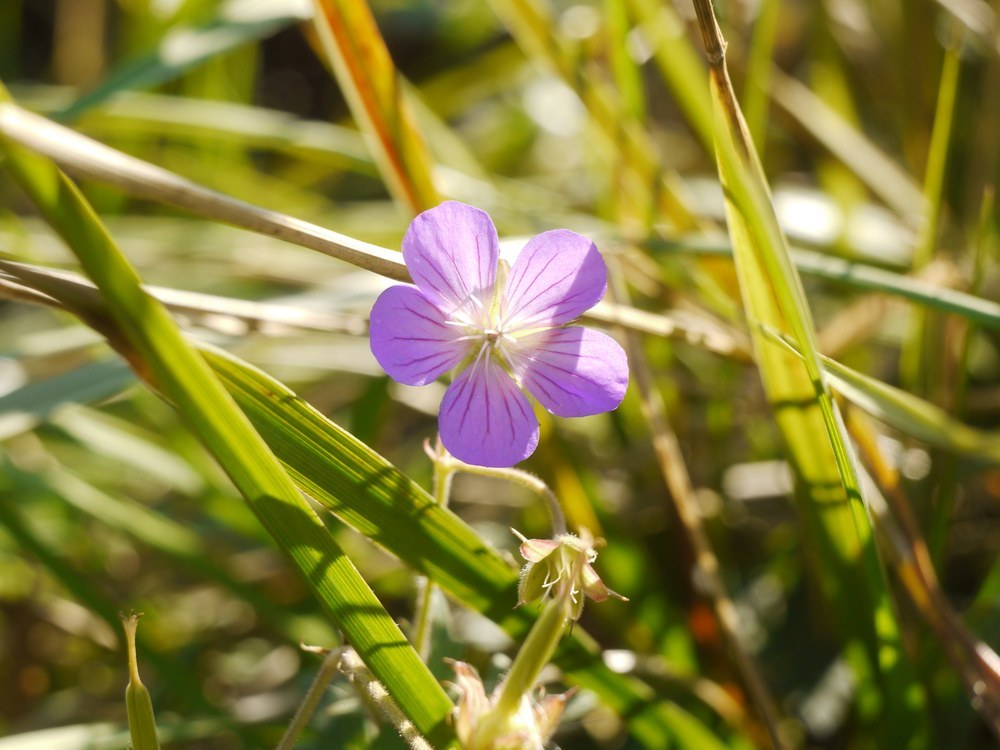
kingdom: Plantae
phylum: Tracheophyta
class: Magnoliopsida
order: Geraniales
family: Geraniaceae
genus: Geranium
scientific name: Geranium collinum
